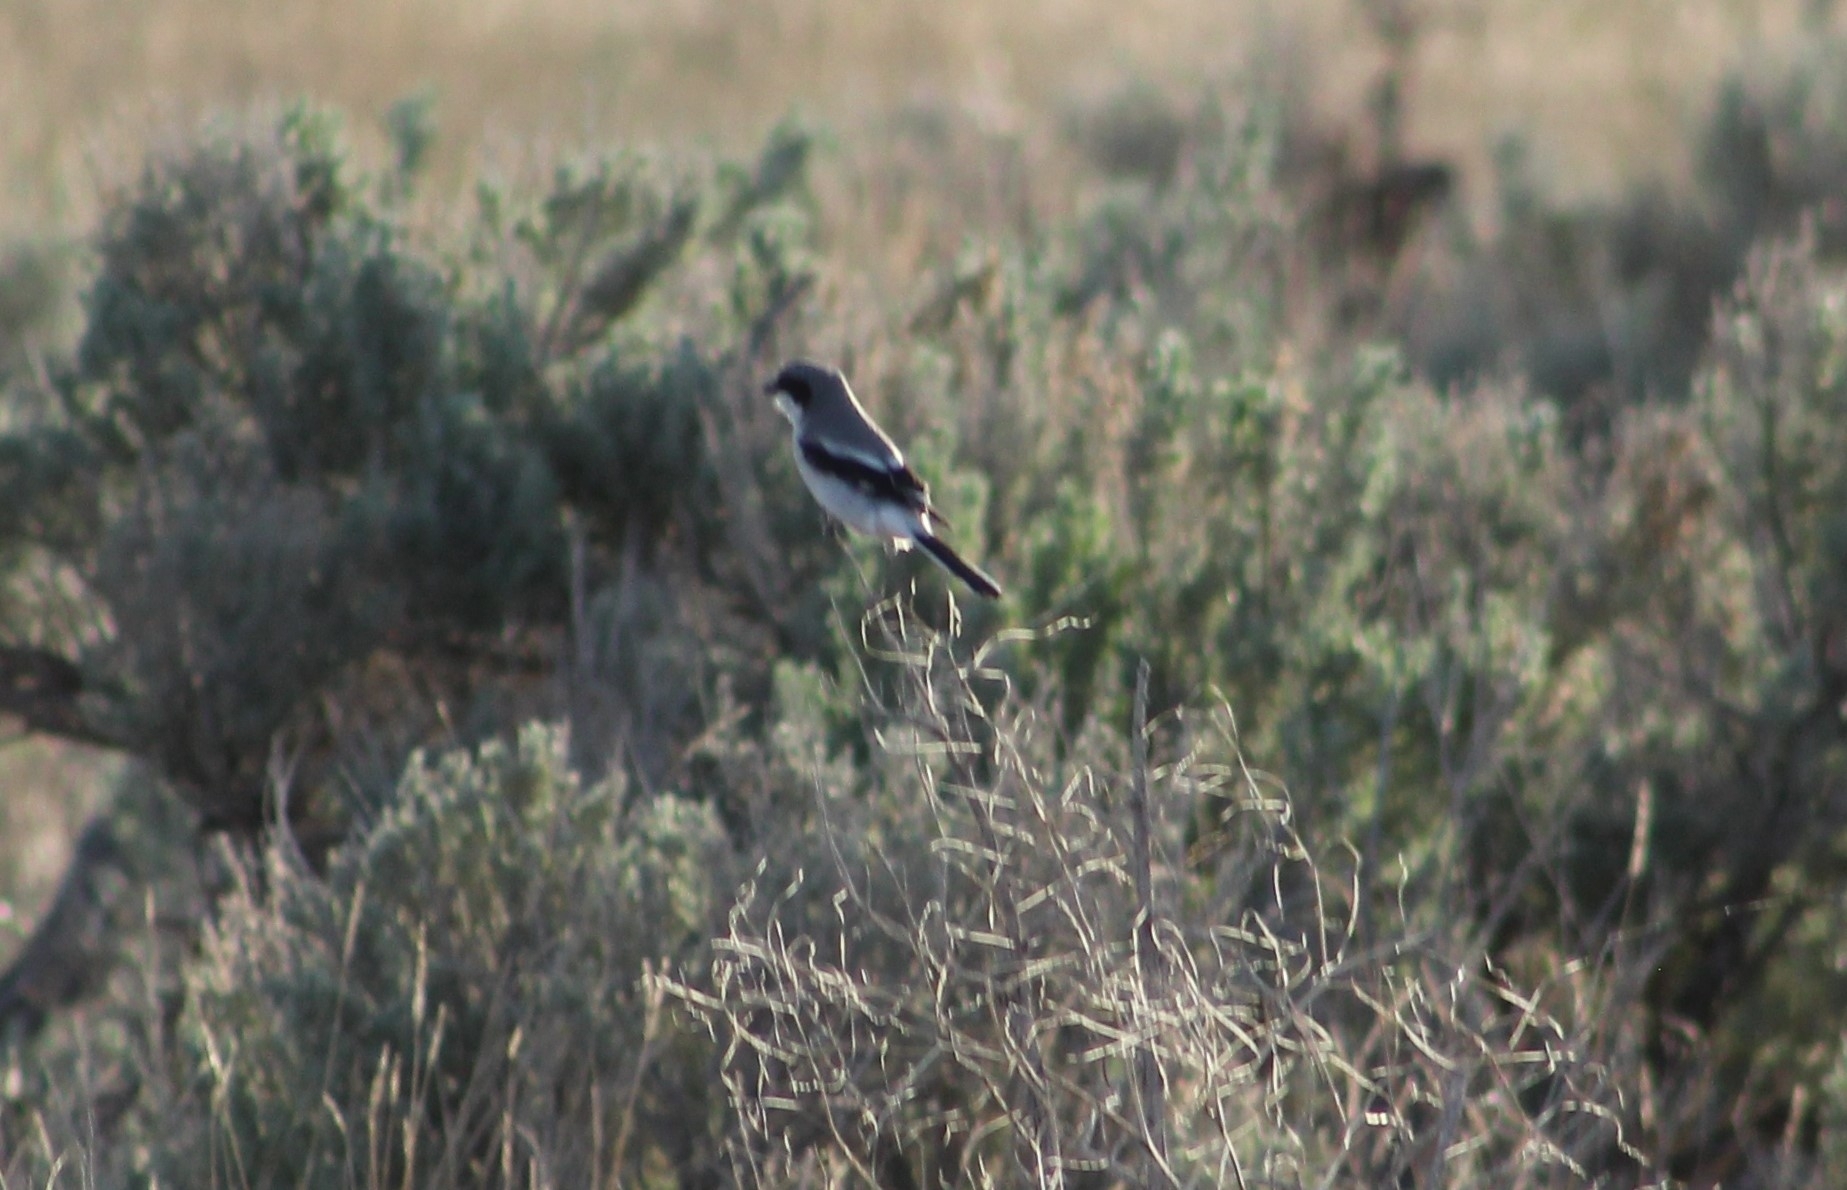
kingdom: Animalia
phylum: Chordata
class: Aves
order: Passeriformes
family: Laniidae
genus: Lanius
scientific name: Lanius ludovicianus
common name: Loggerhead shrike
